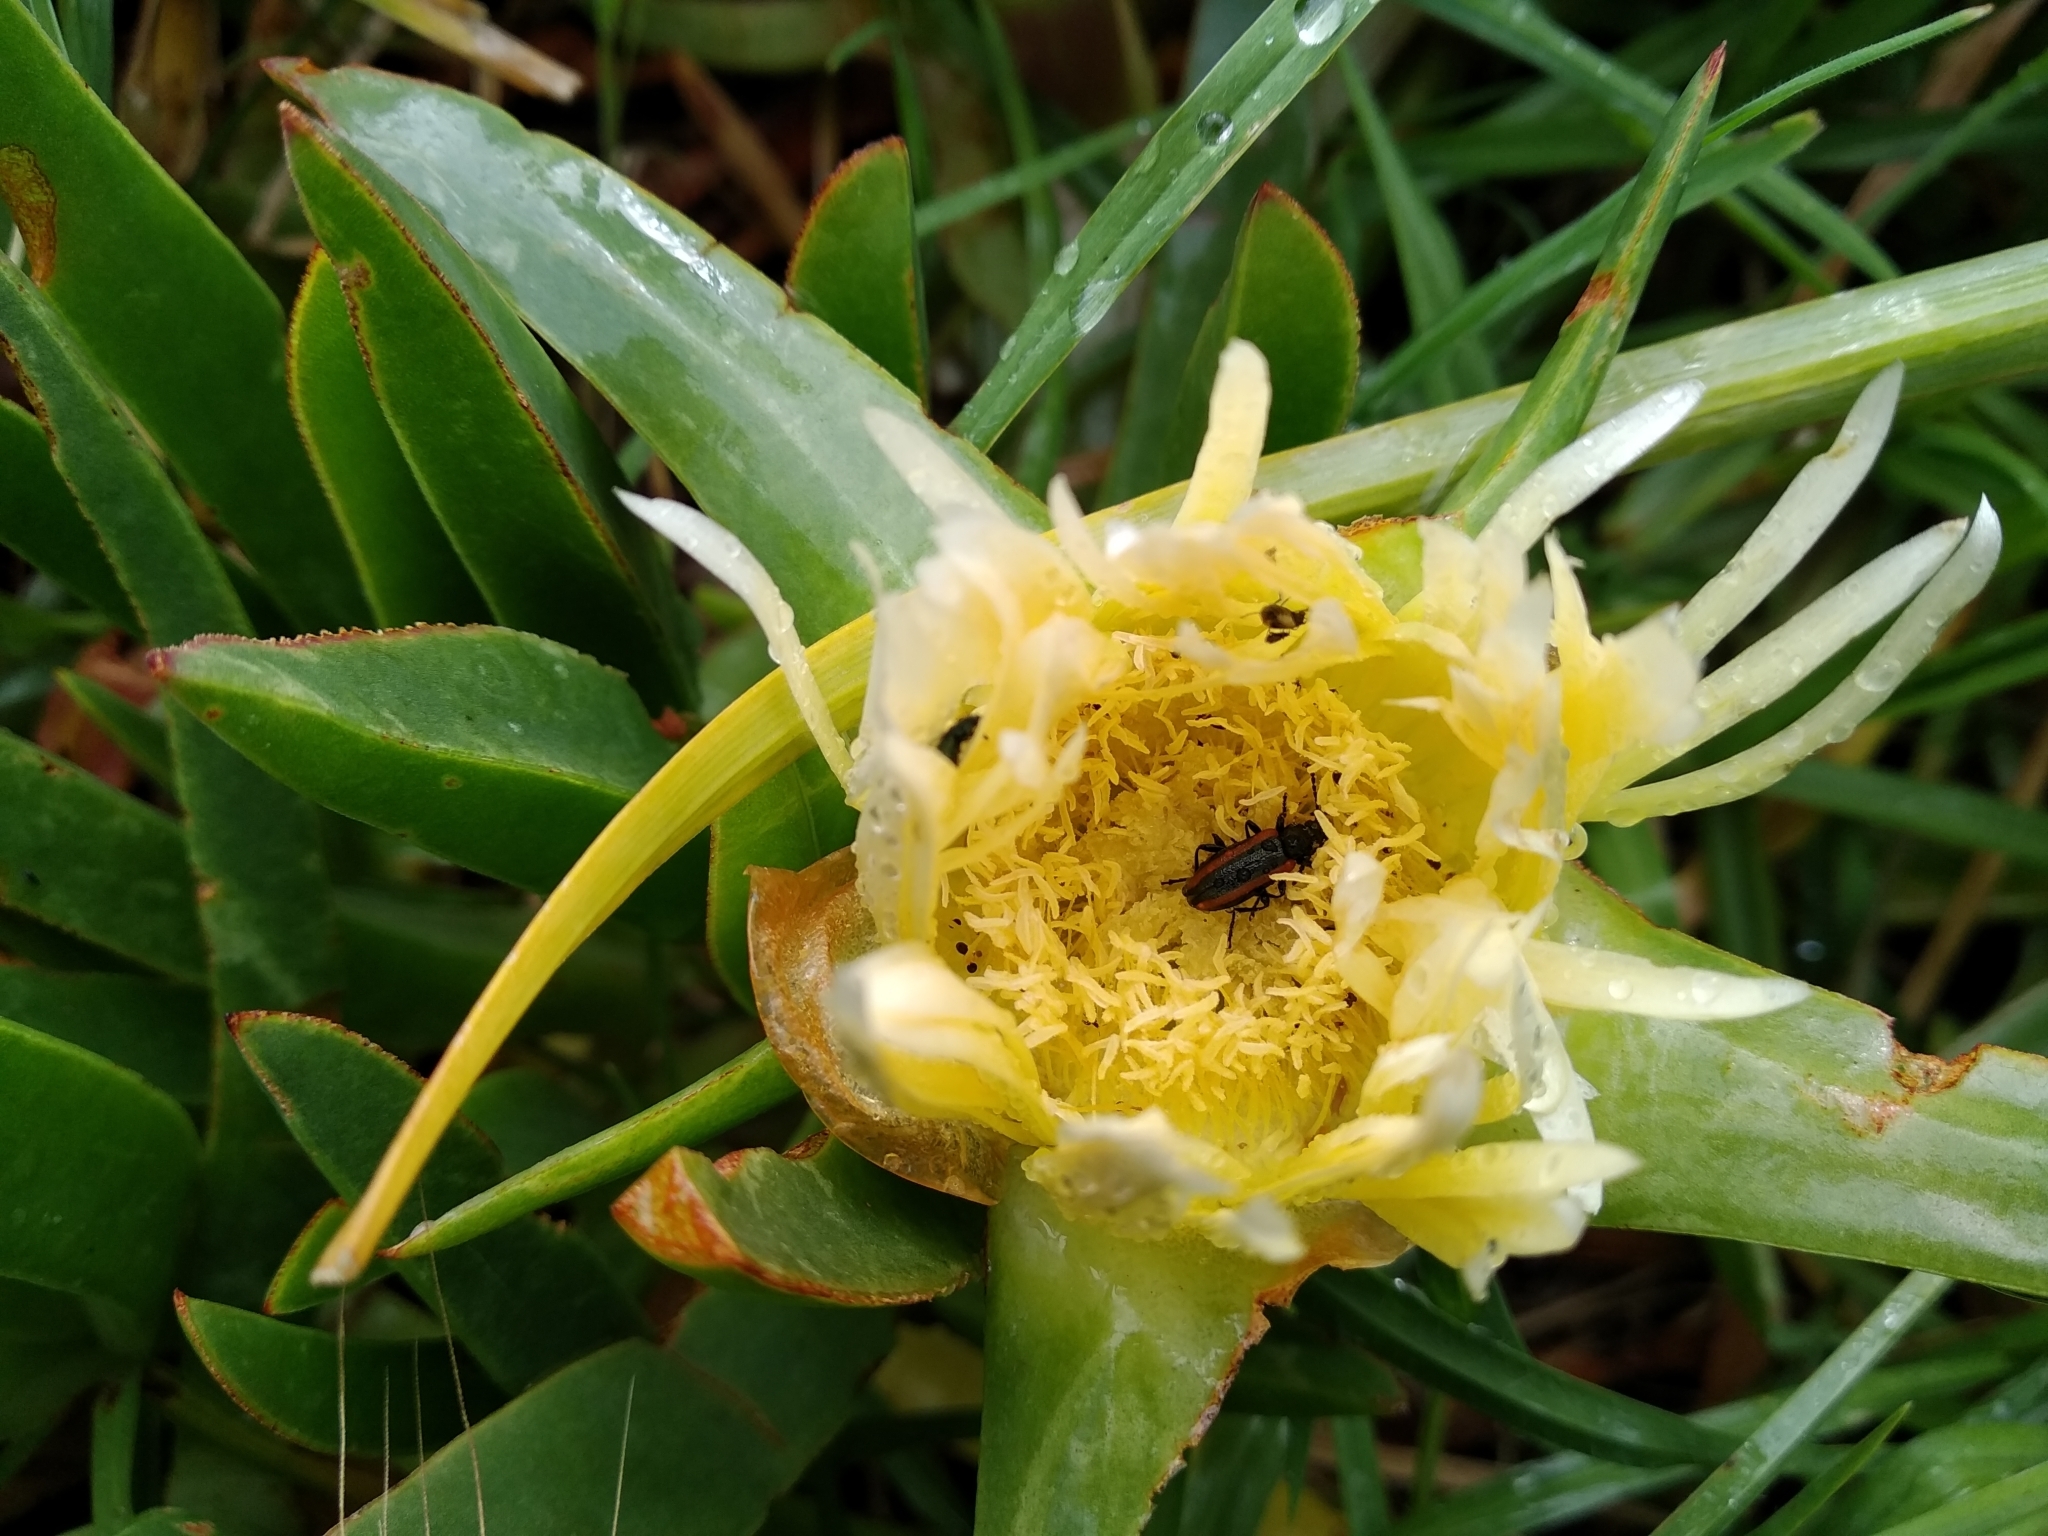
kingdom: Plantae
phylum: Tracheophyta
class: Magnoliopsida
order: Caryophyllales
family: Aizoaceae
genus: Carpobrotus
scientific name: Carpobrotus edulis
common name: Hottentot-fig
